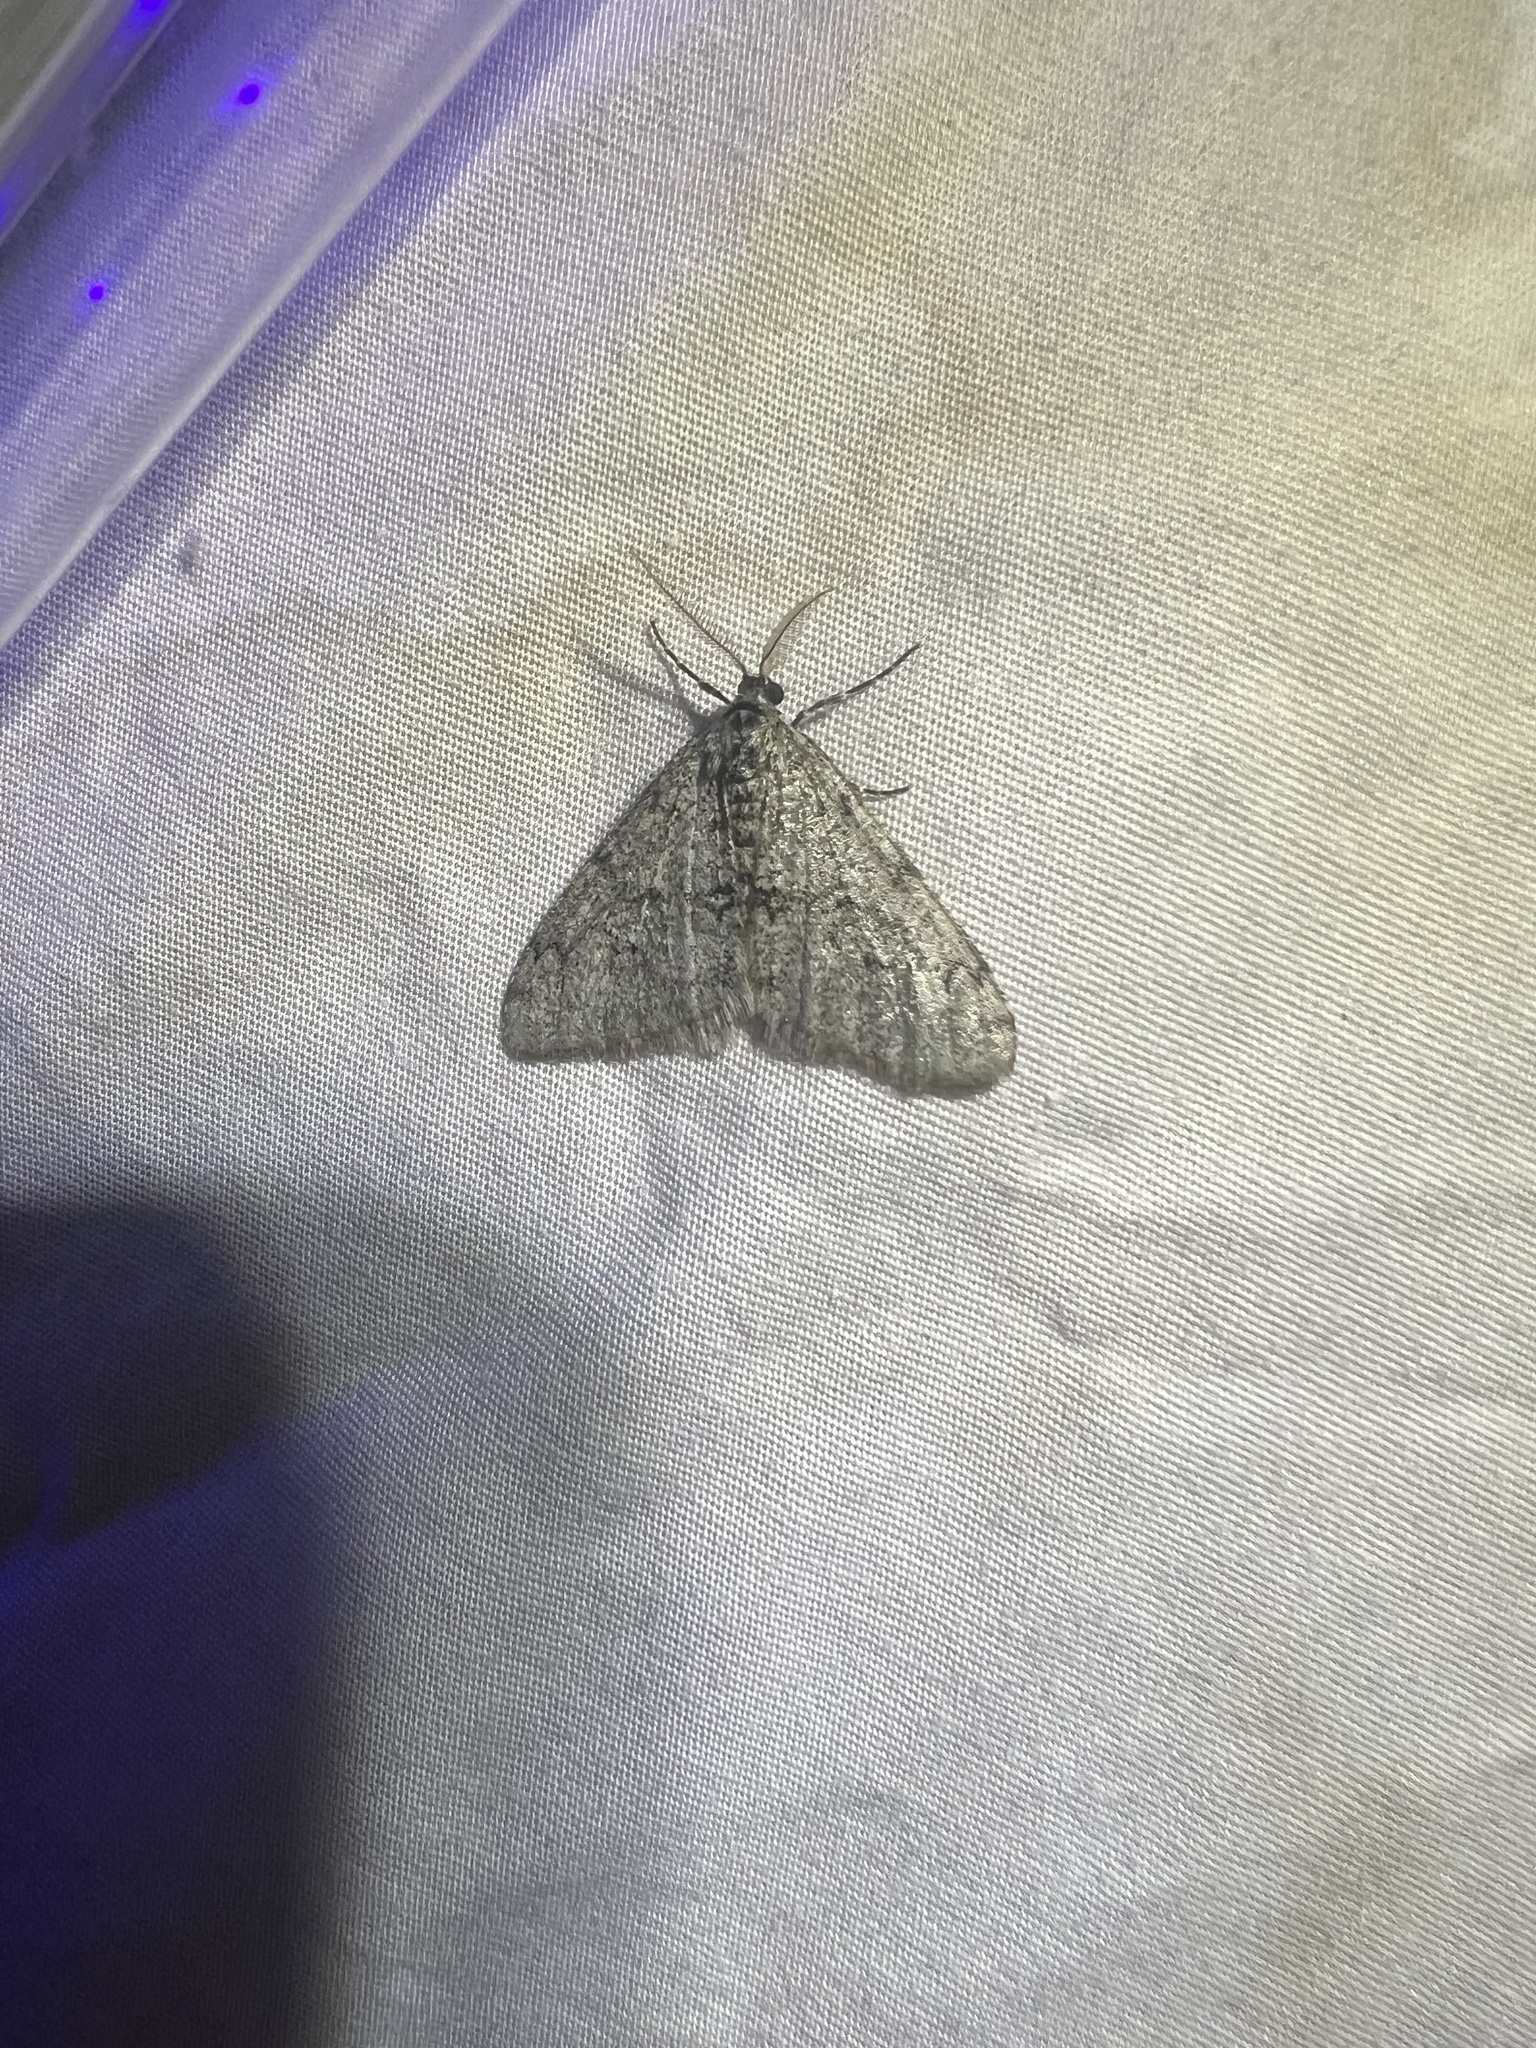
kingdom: Animalia
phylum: Arthropoda
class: Insecta
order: Lepidoptera
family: Geometridae
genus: Phigalia
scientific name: Phigalia strigataria
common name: Small phigalia
